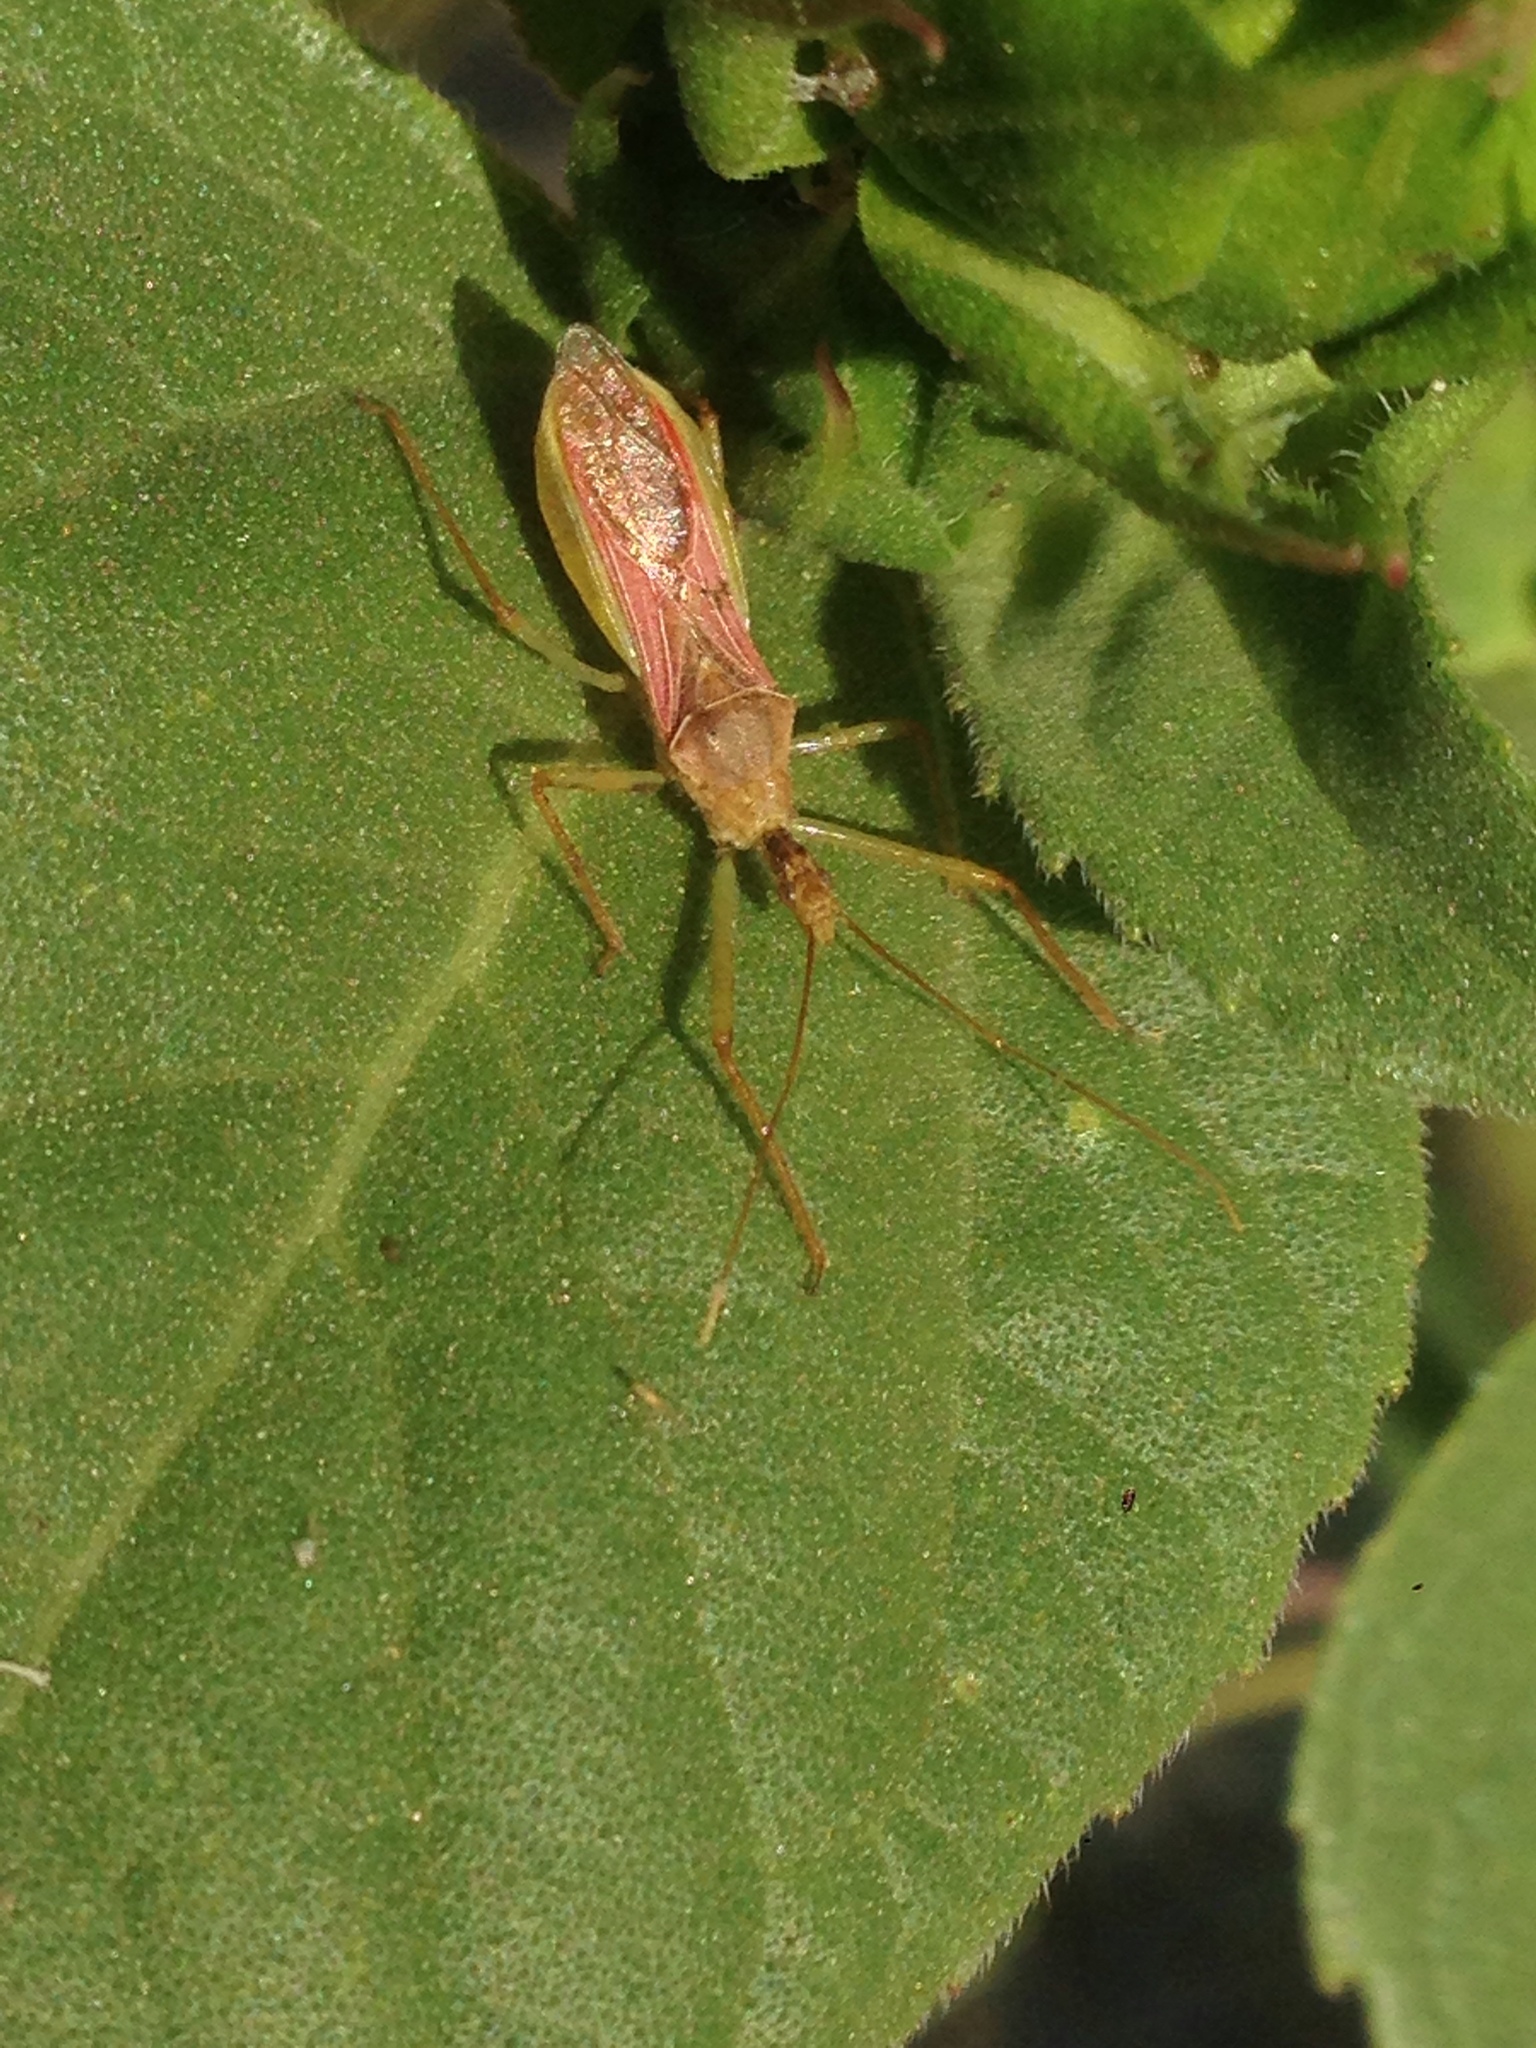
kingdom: Animalia
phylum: Arthropoda
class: Insecta
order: Hemiptera
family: Reduviidae
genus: Zelus
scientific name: Zelus renardii
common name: Assassin bug
